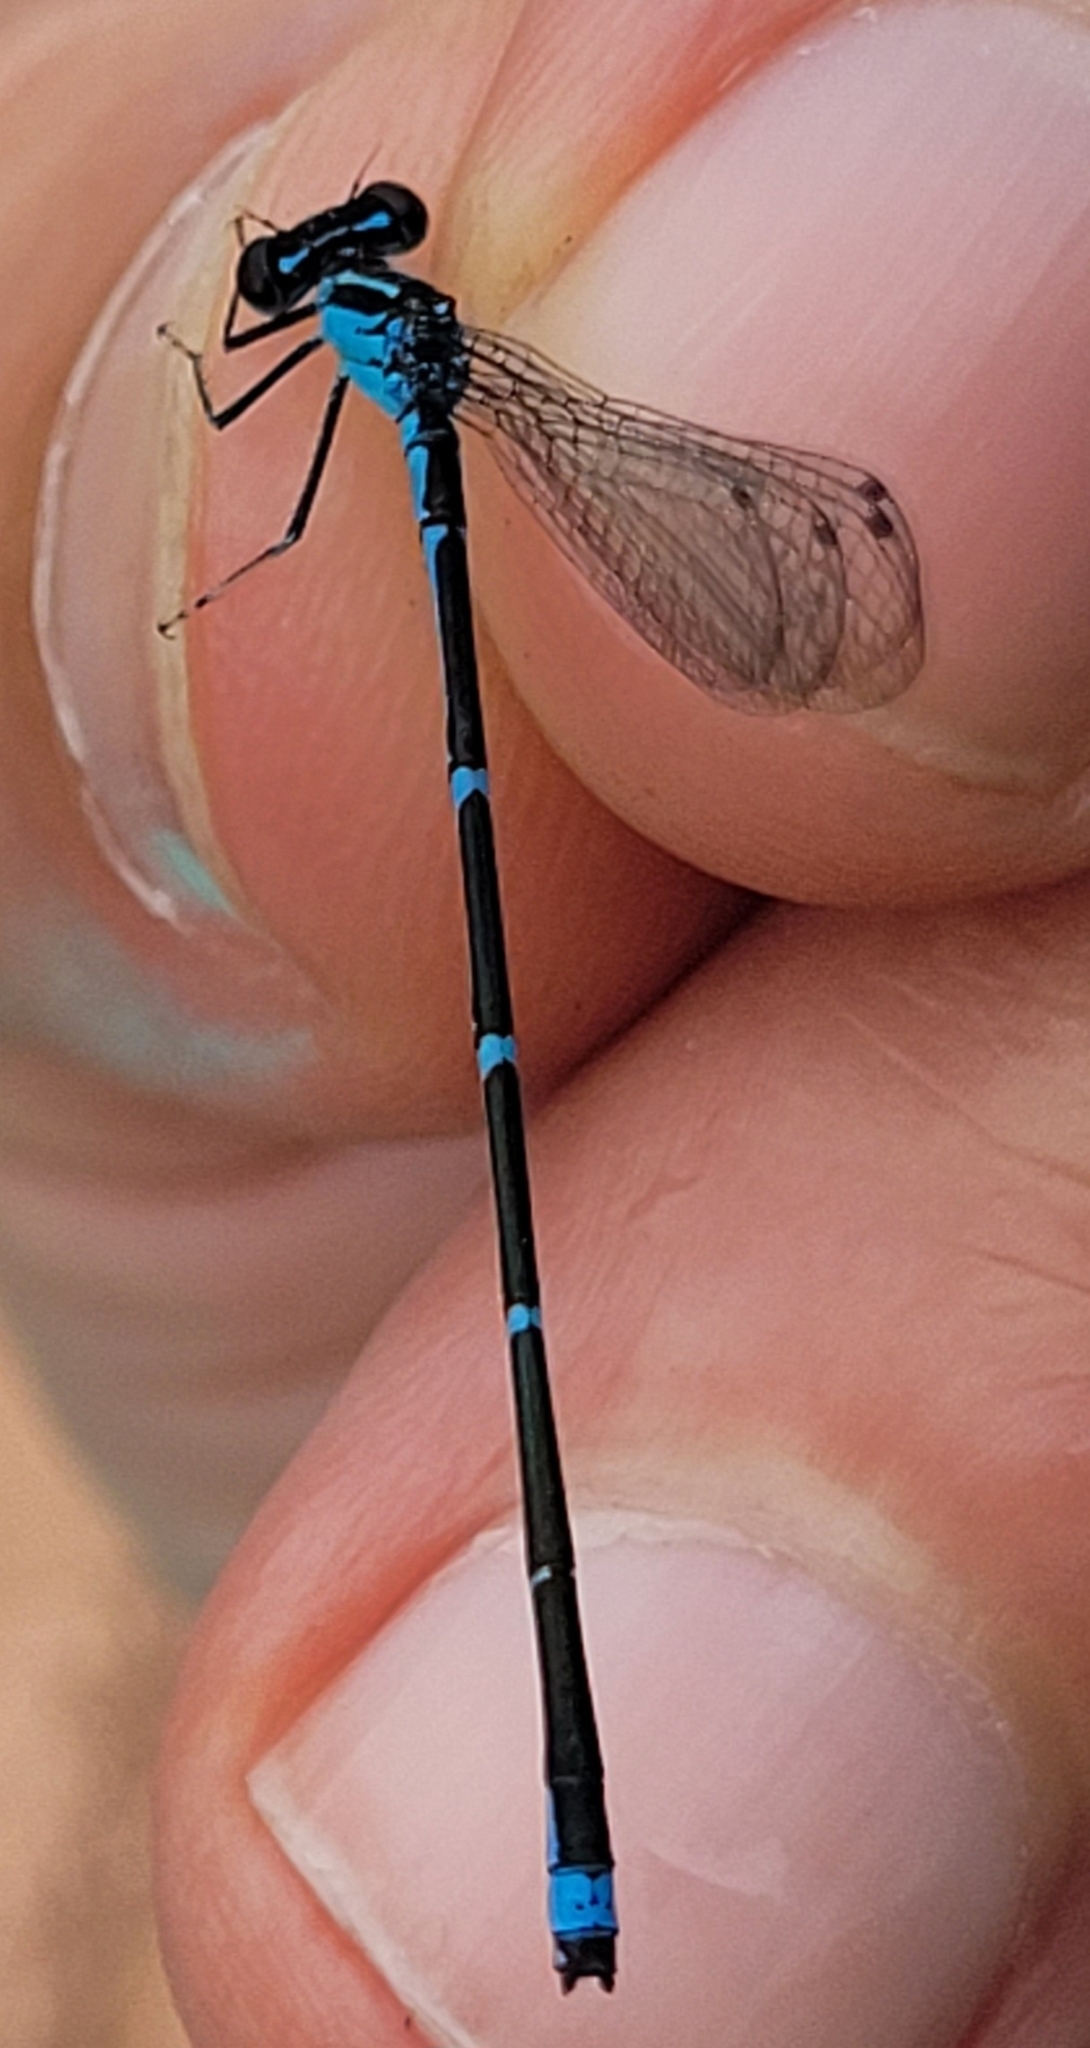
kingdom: Animalia
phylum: Arthropoda
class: Insecta
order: Odonata
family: Coenagrionidae
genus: Enallagma
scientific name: Enallagma exsulans
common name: Stream bluet
